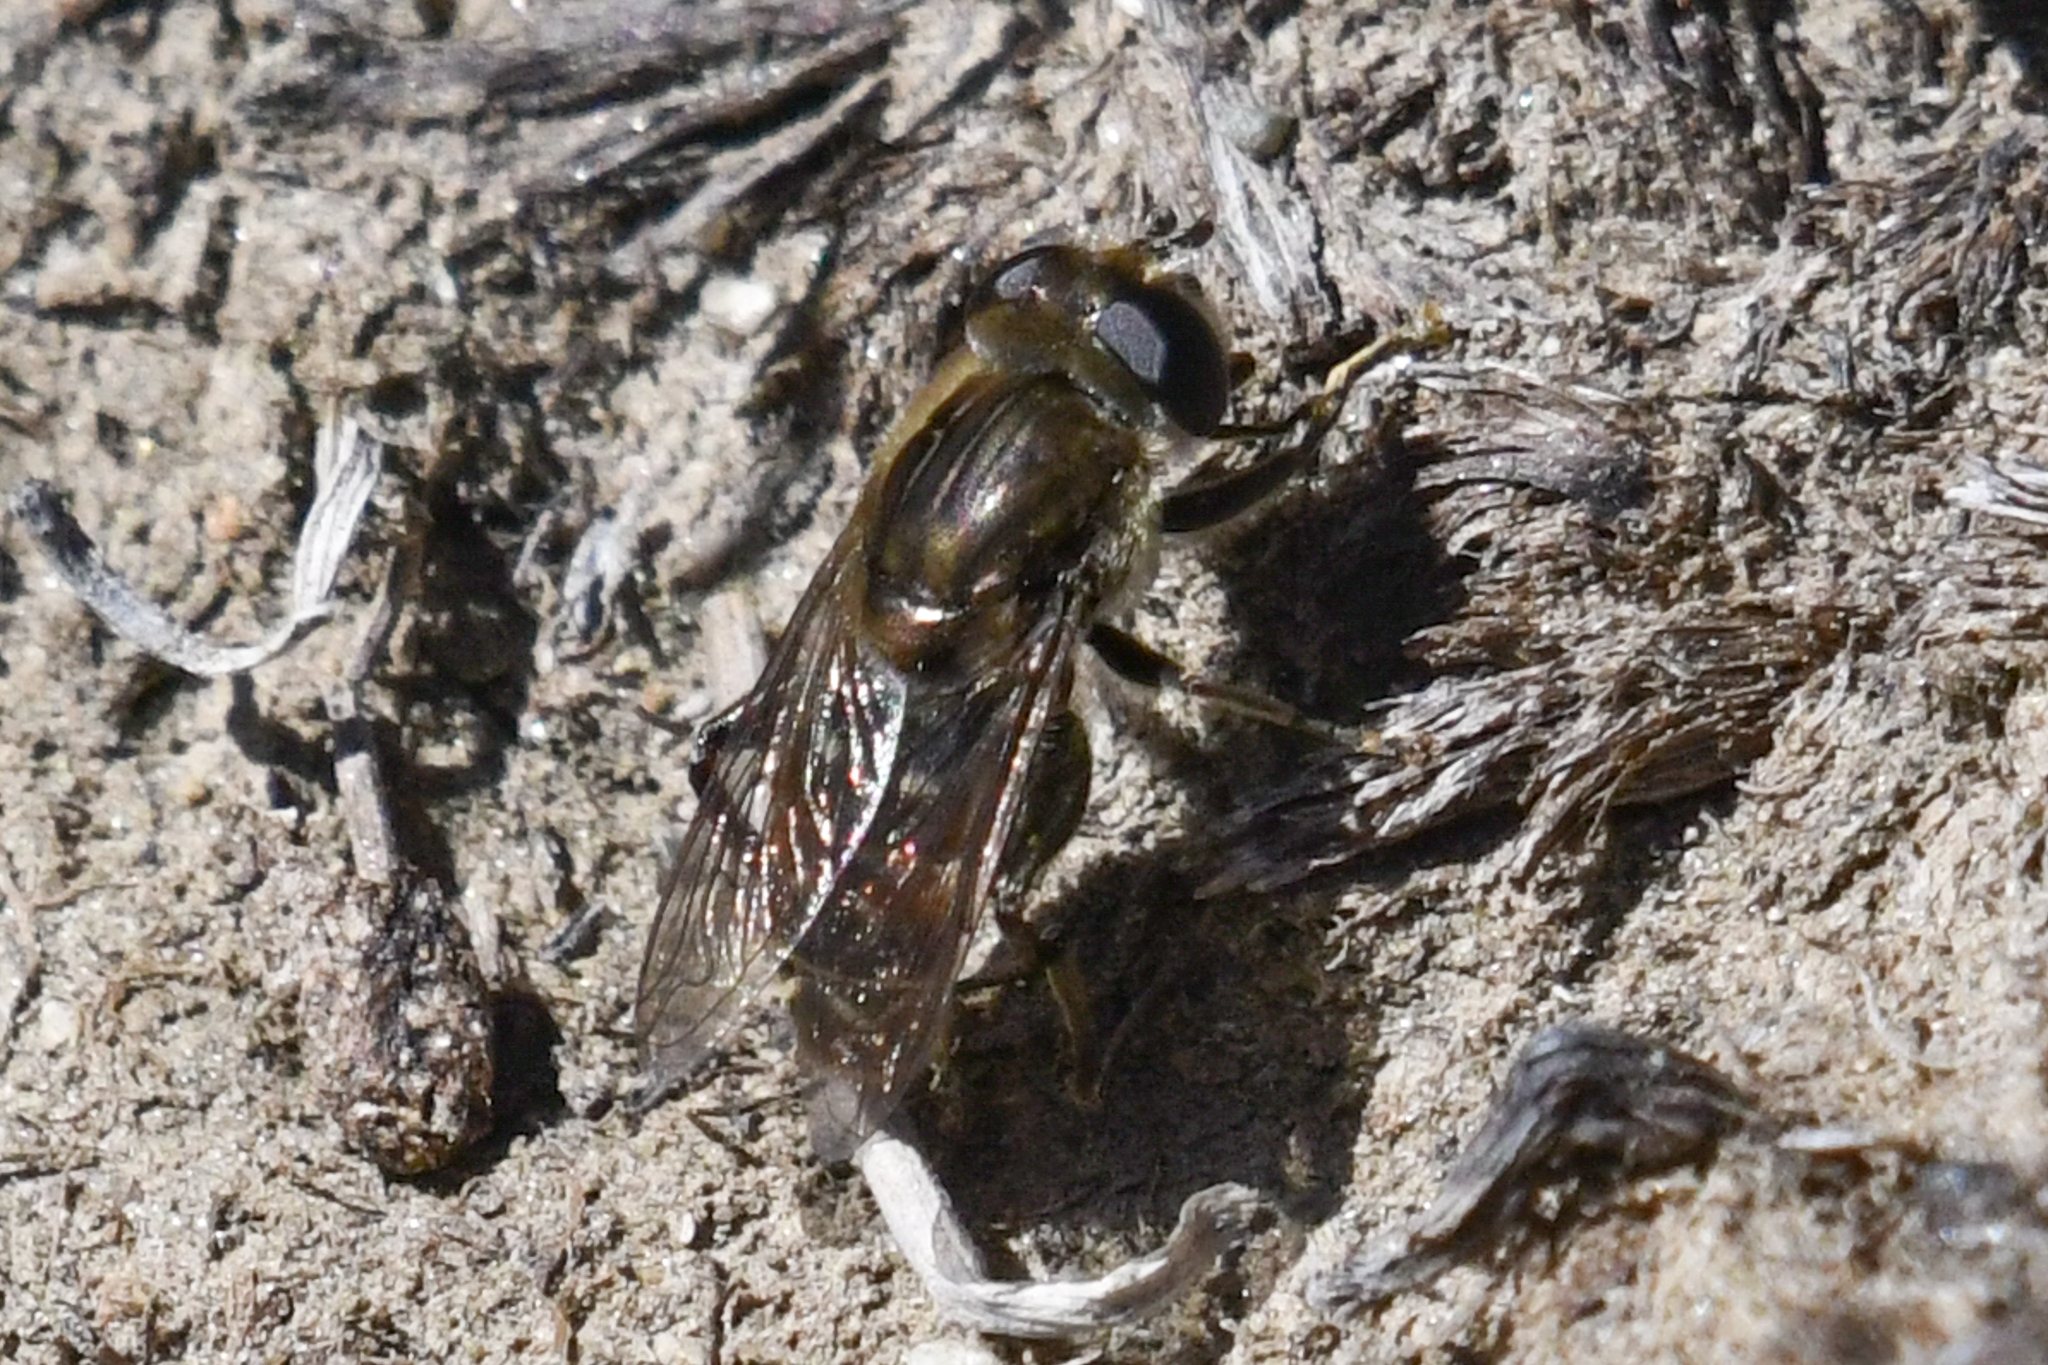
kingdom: Animalia
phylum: Arthropoda
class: Insecta
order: Diptera
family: Syrphidae
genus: Asemosyrphus
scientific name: Asemosyrphus polygrammus
